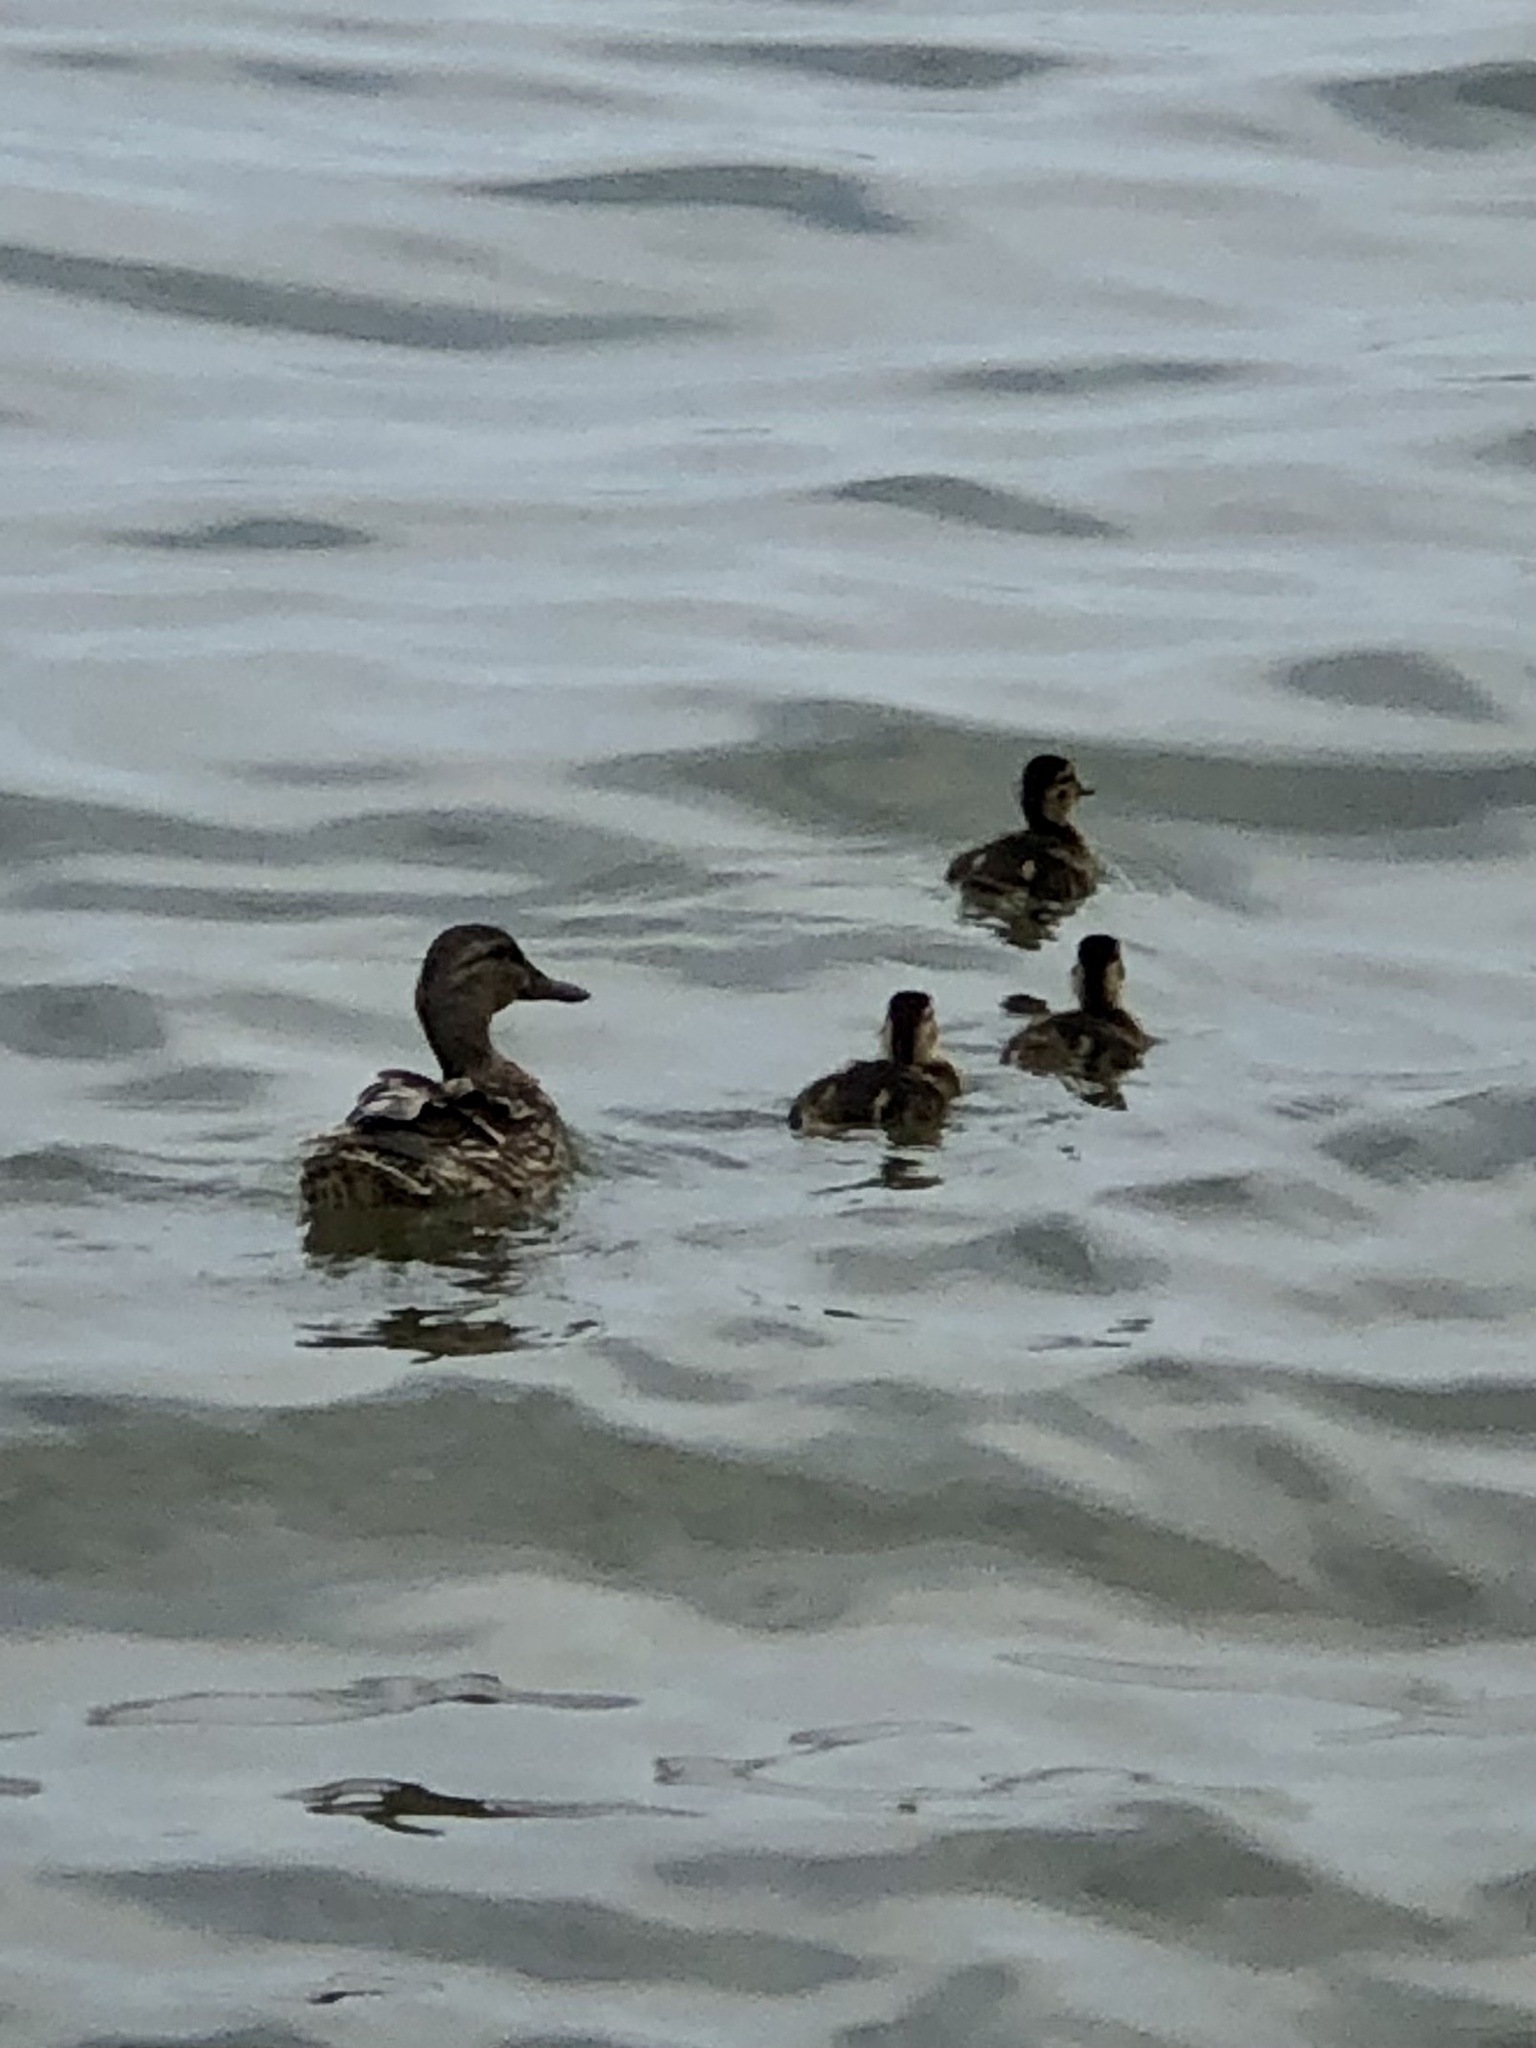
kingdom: Animalia
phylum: Chordata
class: Aves
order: Anseriformes
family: Anatidae
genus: Anas
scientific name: Anas platyrhynchos
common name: Mallard
